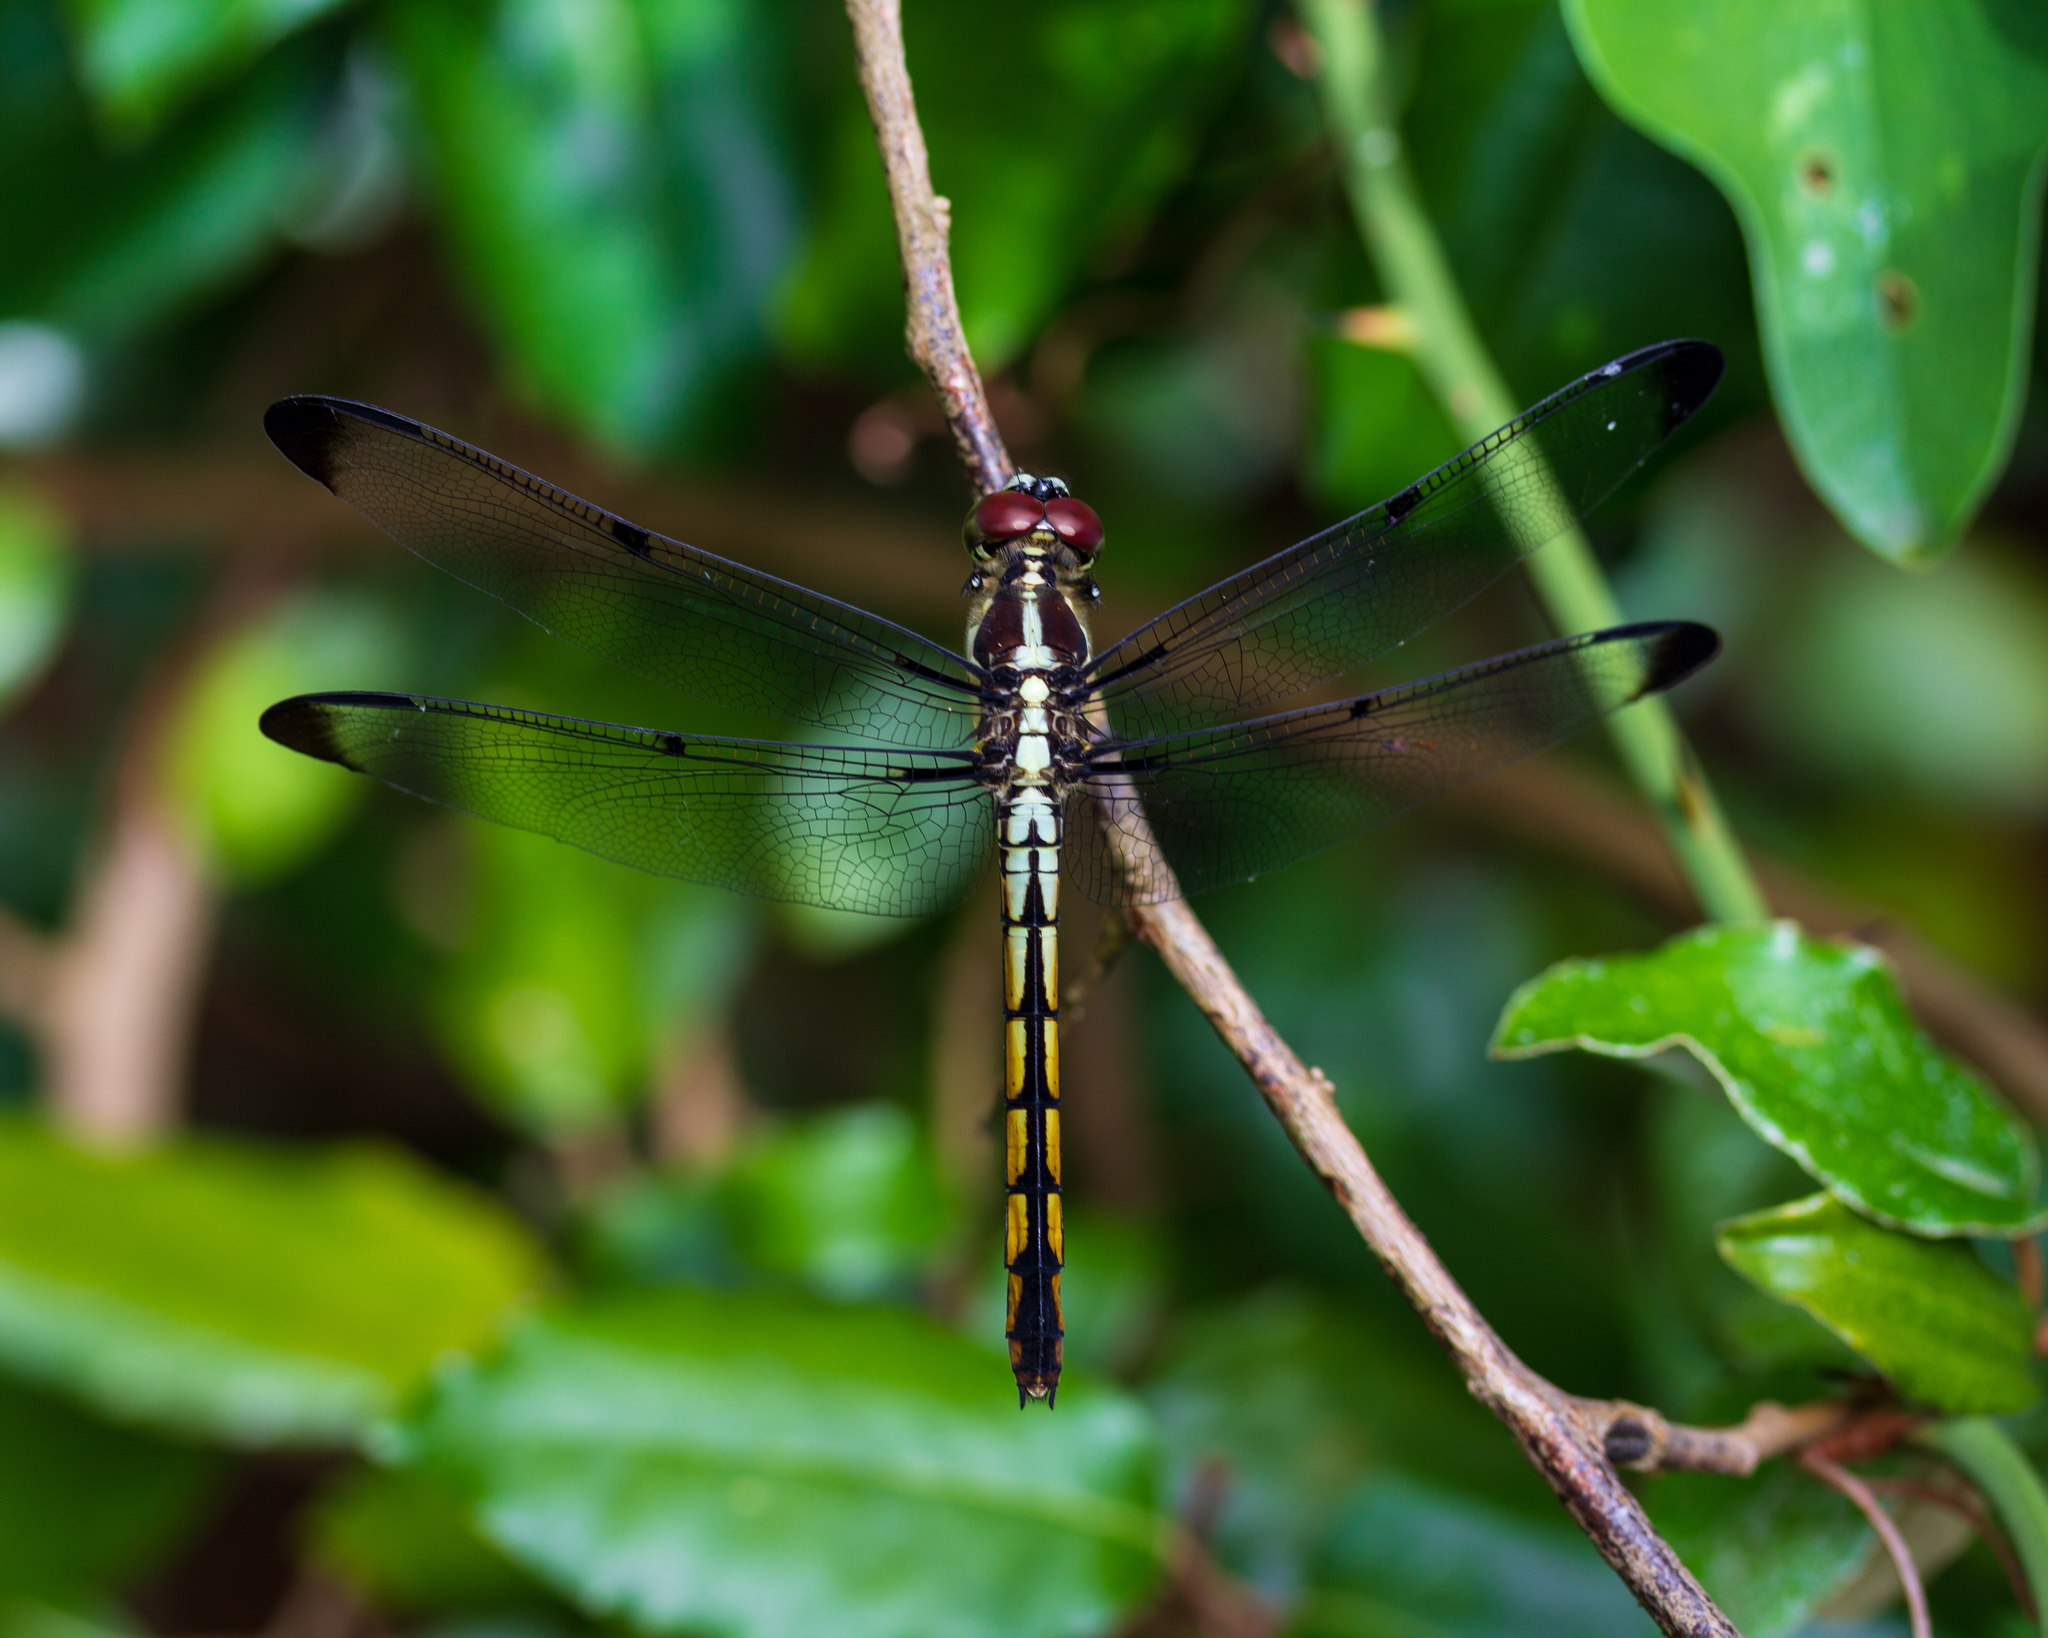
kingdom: Animalia
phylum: Arthropoda
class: Insecta
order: Odonata
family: Libellulidae
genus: Libellula
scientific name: Libellula vibrans
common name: Great blue skimmer
